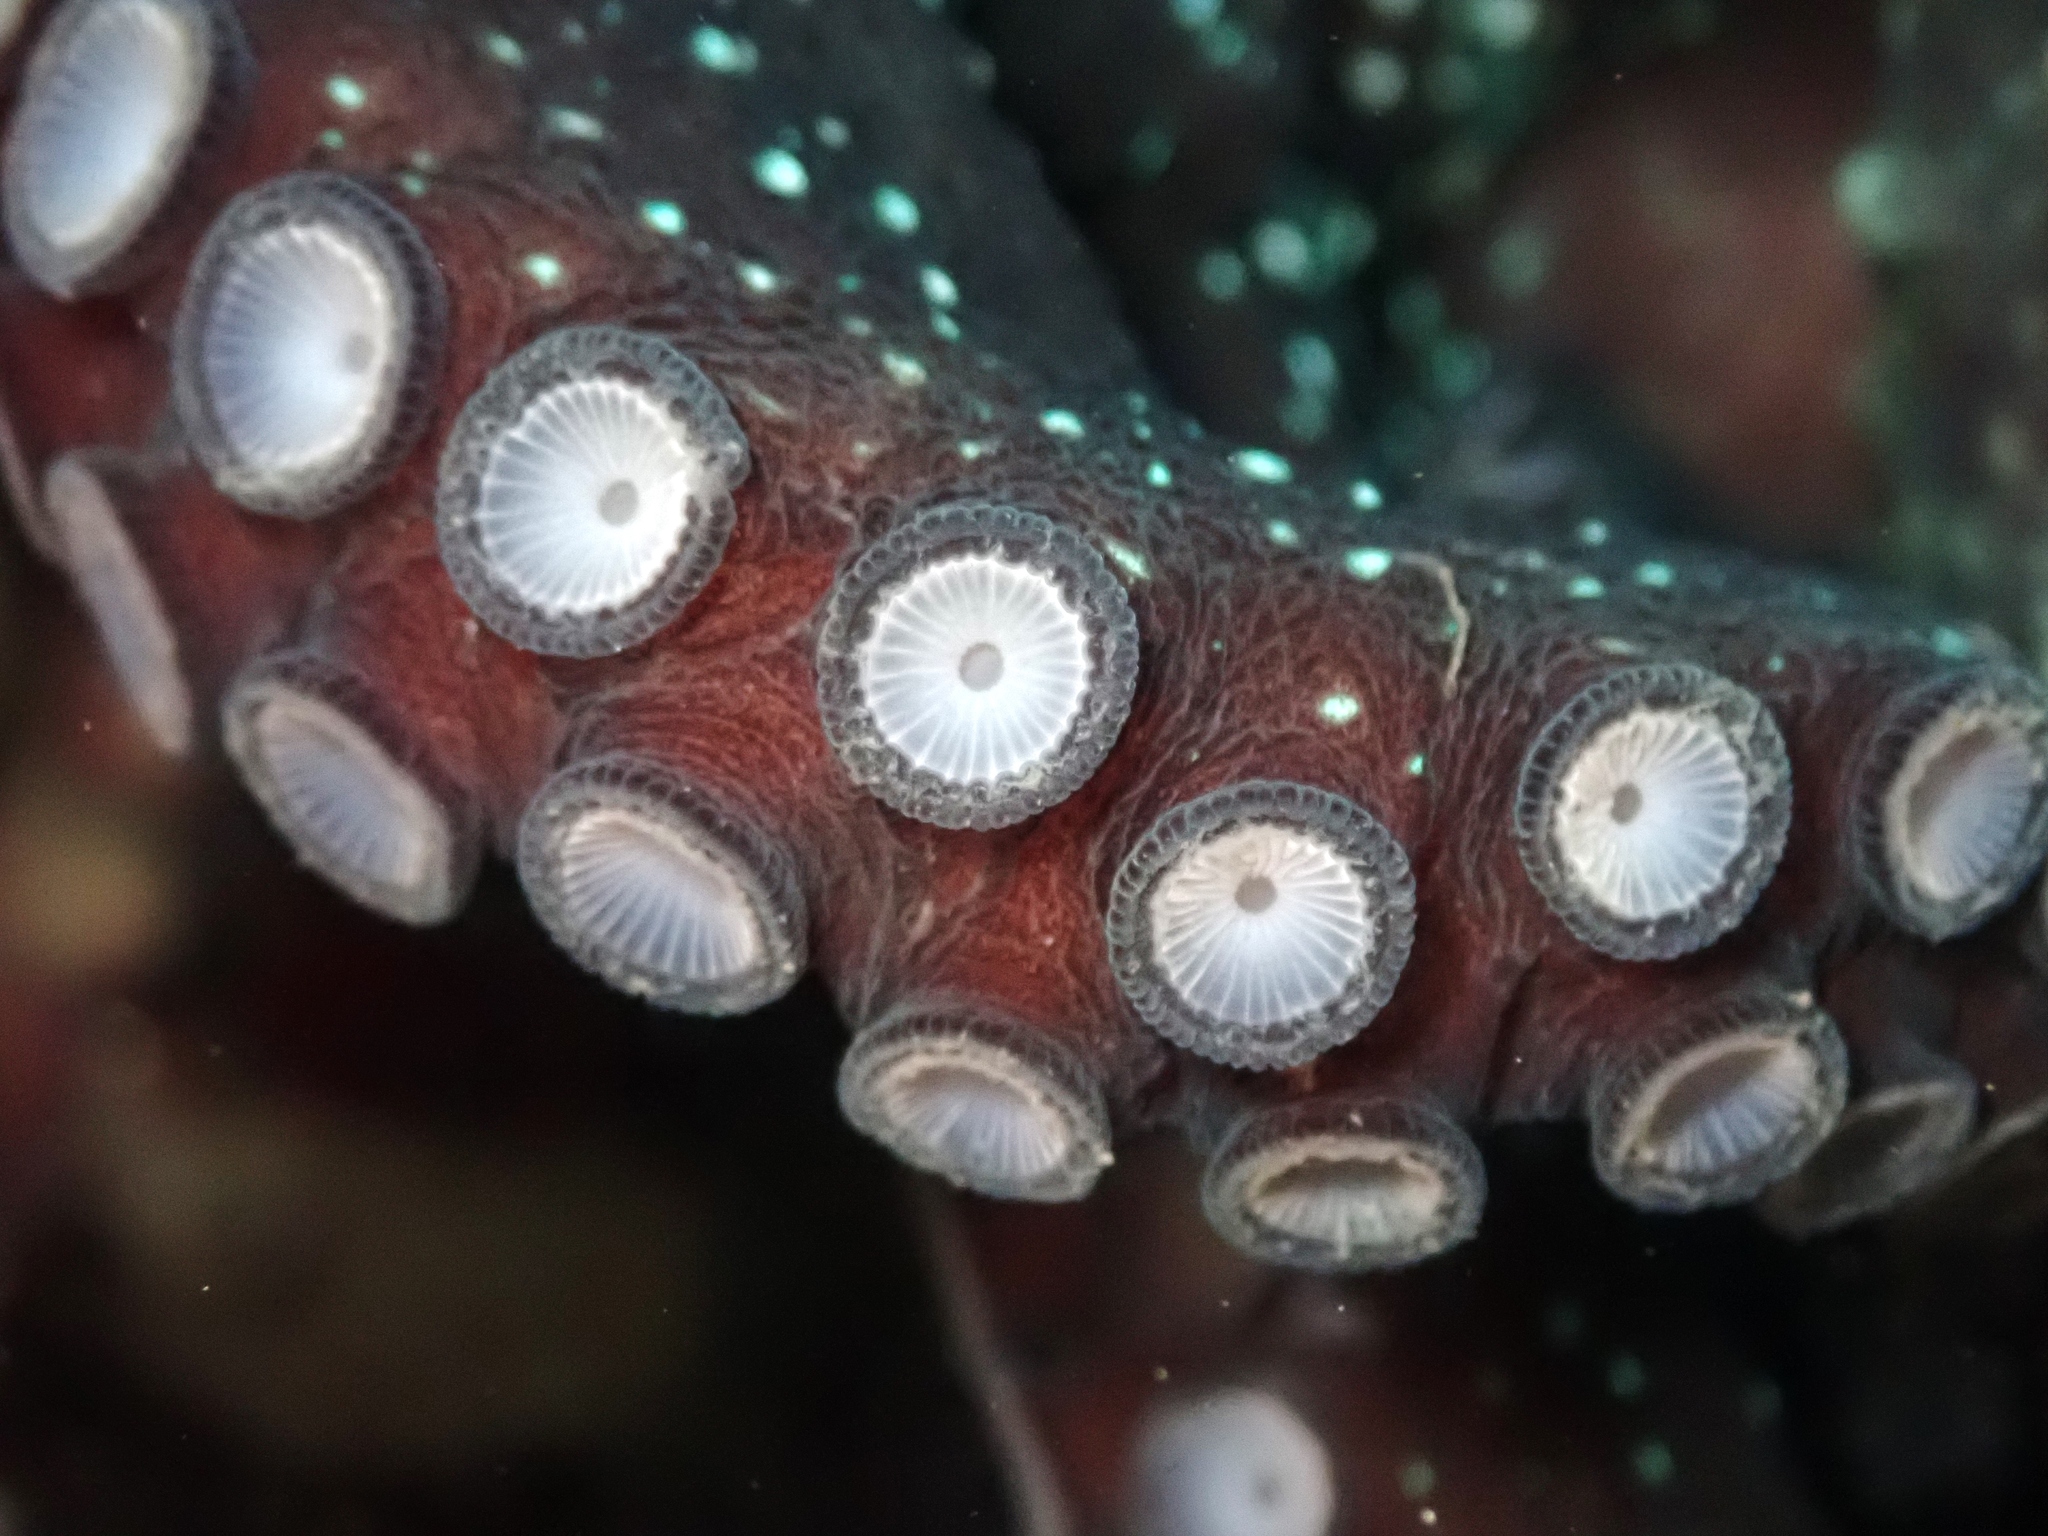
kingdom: Animalia
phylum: Mollusca
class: Cephalopoda
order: Octopoda
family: Octopodidae
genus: Macroctopus
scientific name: Macroctopus maorum
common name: Maori octopus
